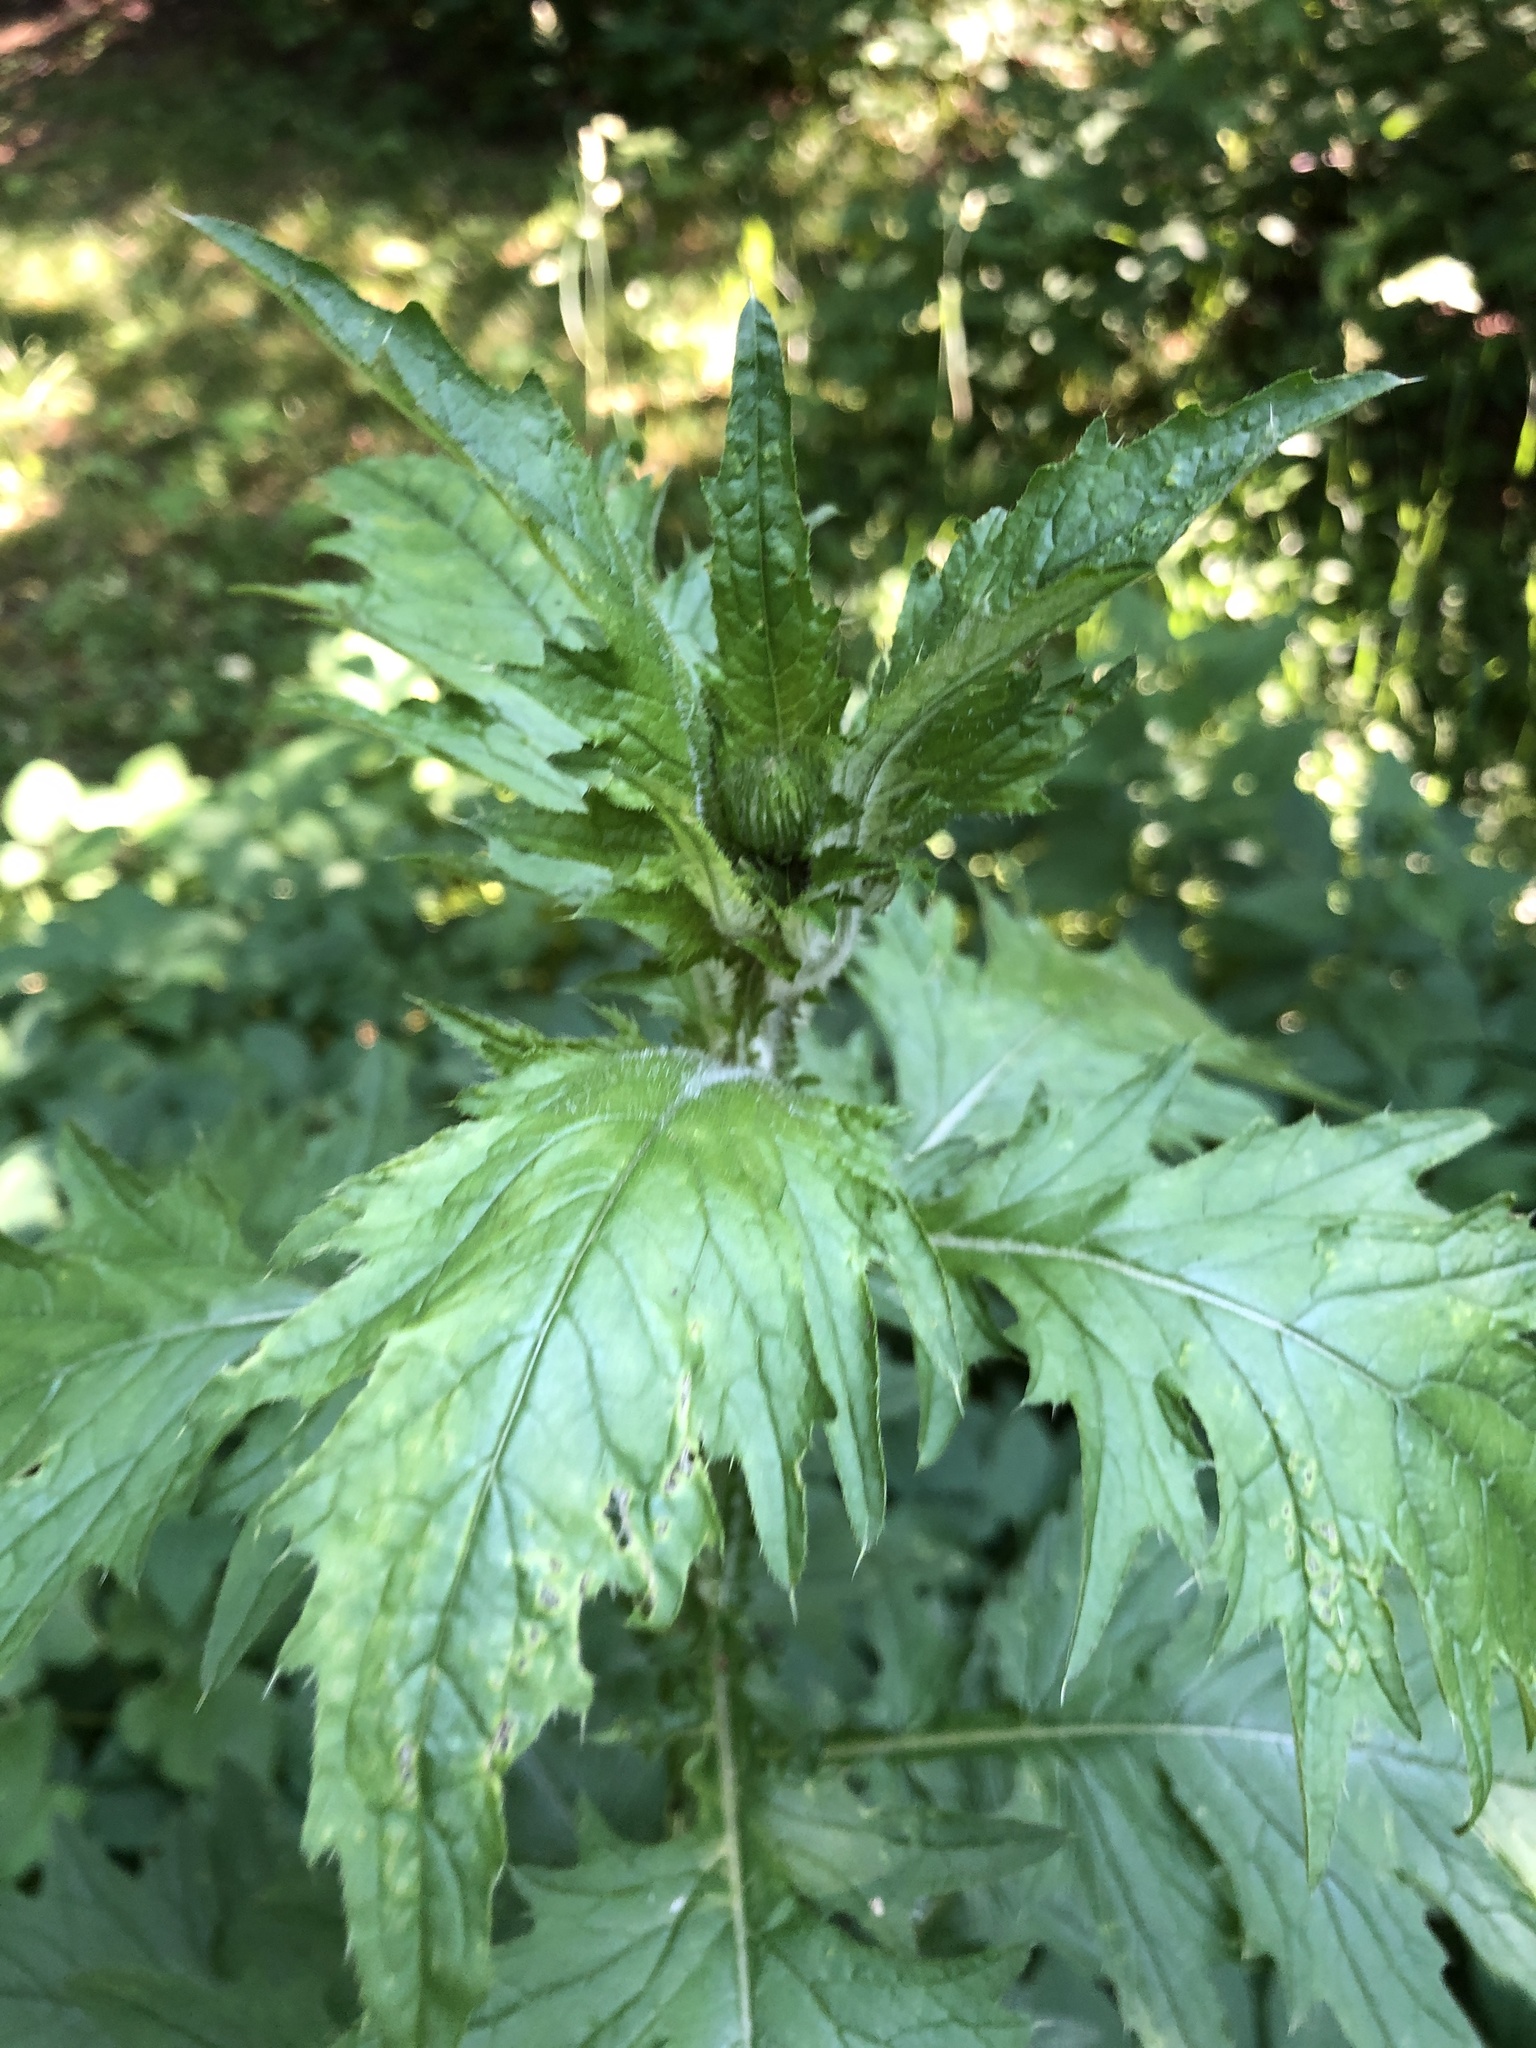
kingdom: Plantae
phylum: Tracheophyta
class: Magnoliopsida
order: Asterales
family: Asteraceae
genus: Carduus
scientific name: Carduus crispus
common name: Welted thistle
